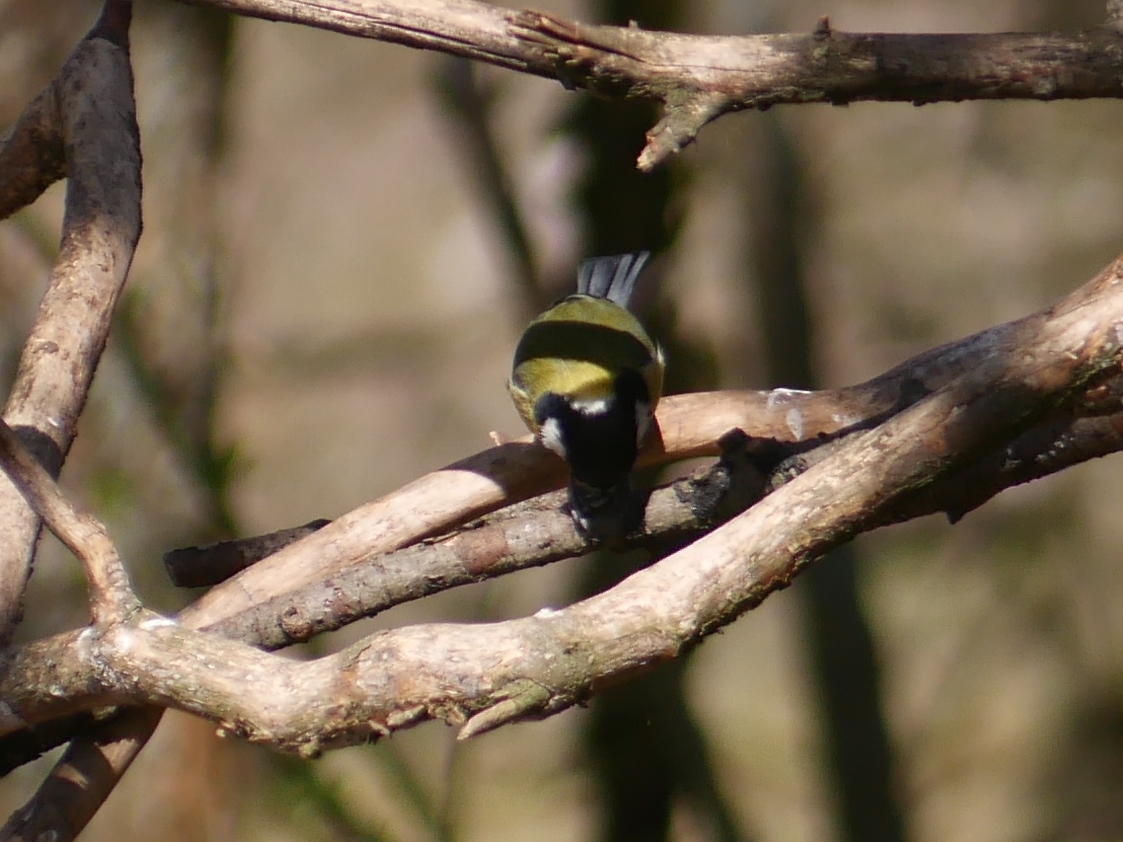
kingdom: Animalia
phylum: Chordata
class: Aves
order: Passeriformes
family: Paridae
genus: Parus
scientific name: Parus major
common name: Great tit
